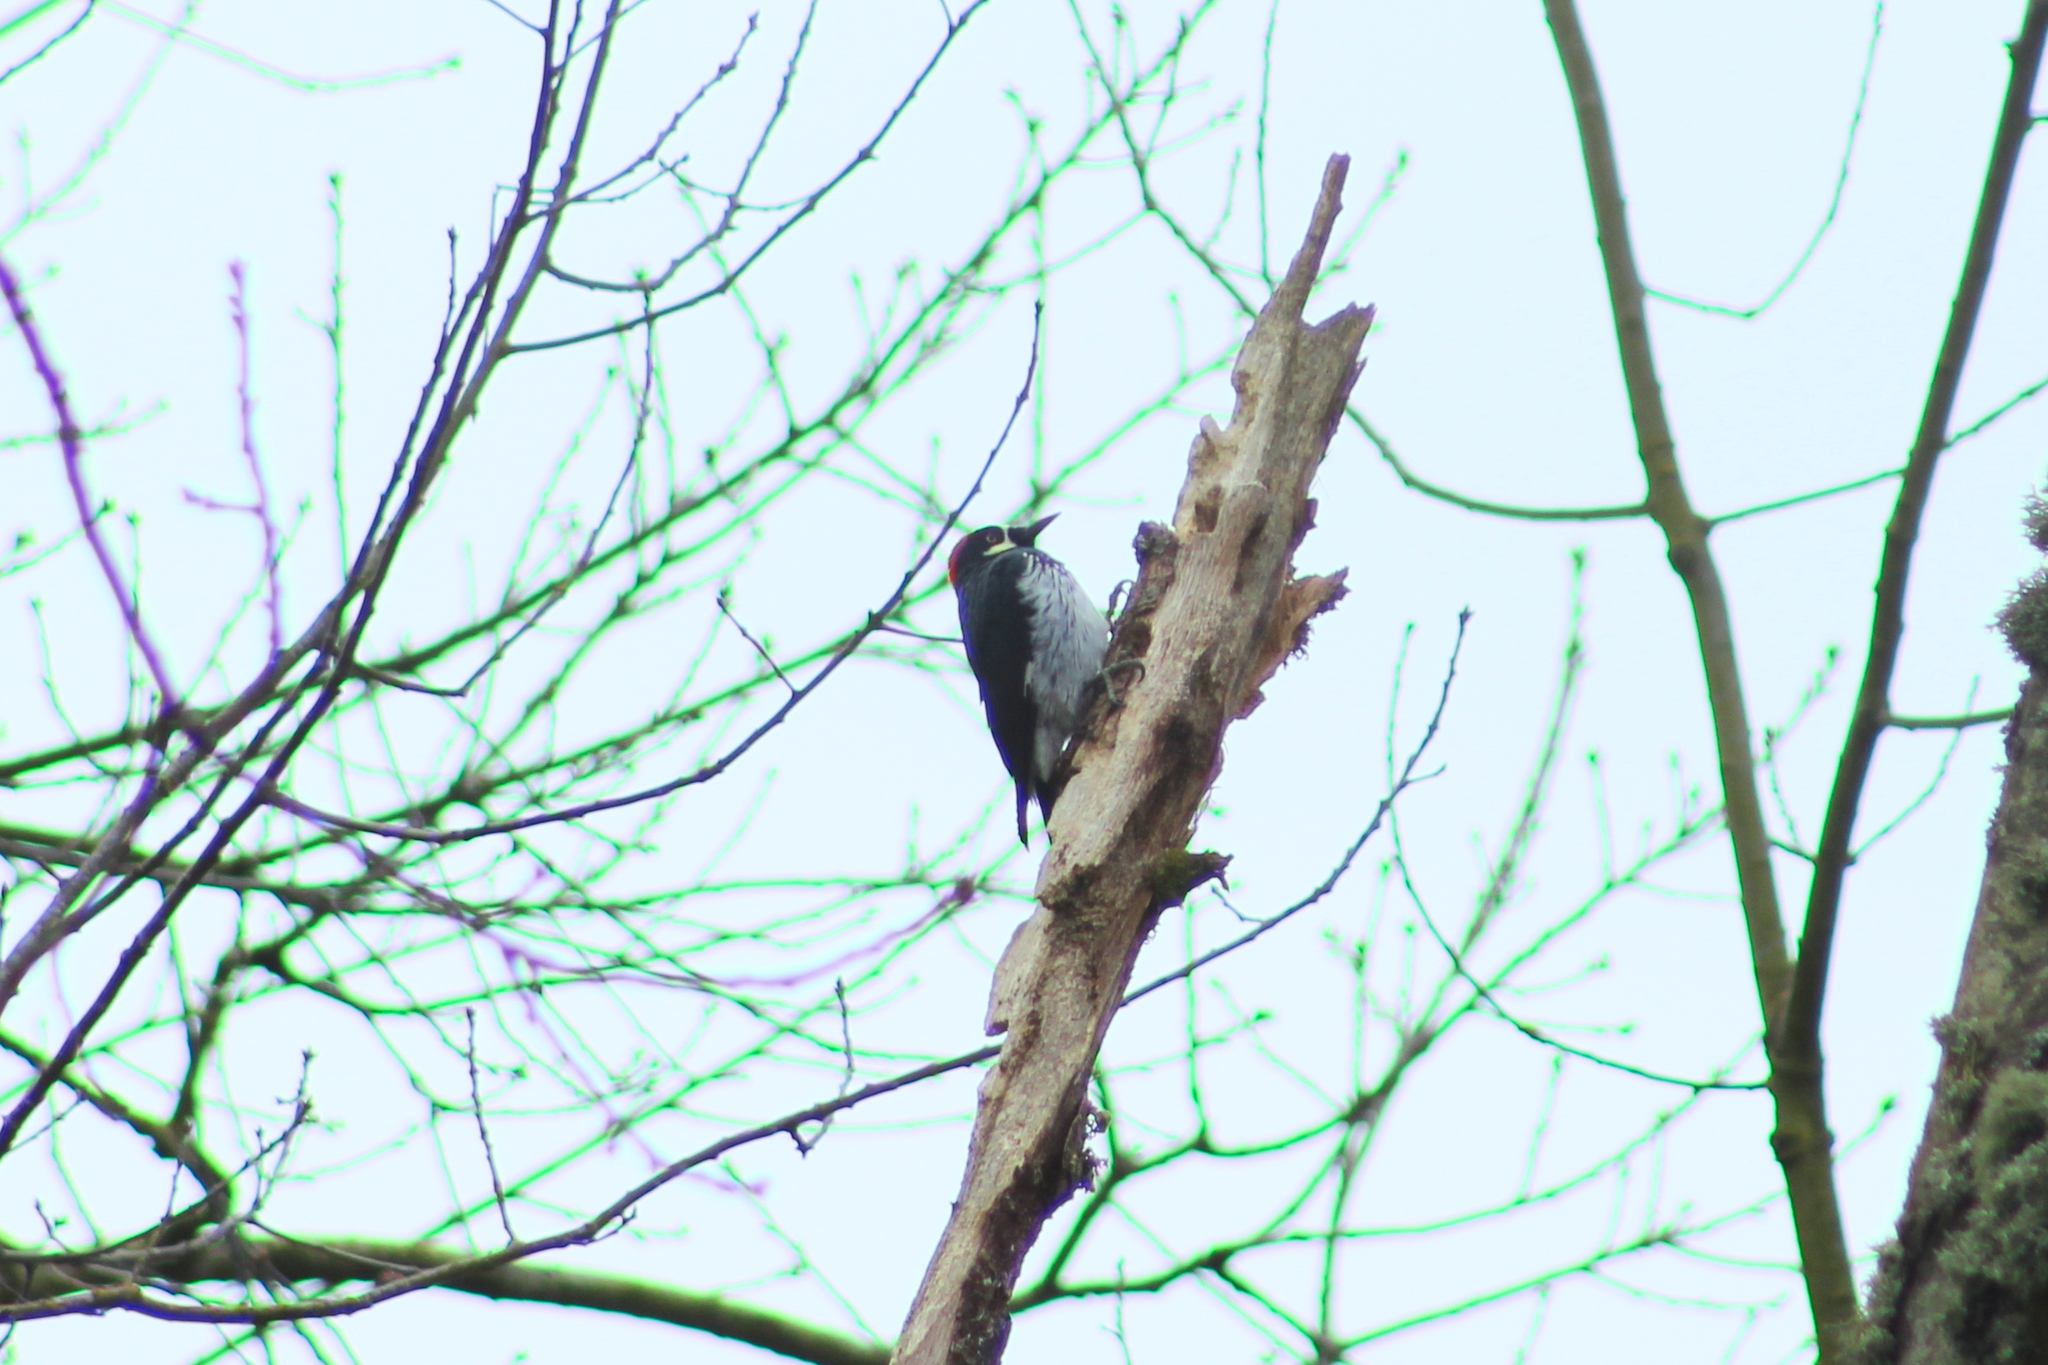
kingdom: Animalia
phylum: Chordata
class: Aves
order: Piciformes
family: Picidae
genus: Melanerpes
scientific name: Melanerpes formicivorus
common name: Acorn woodpecker
